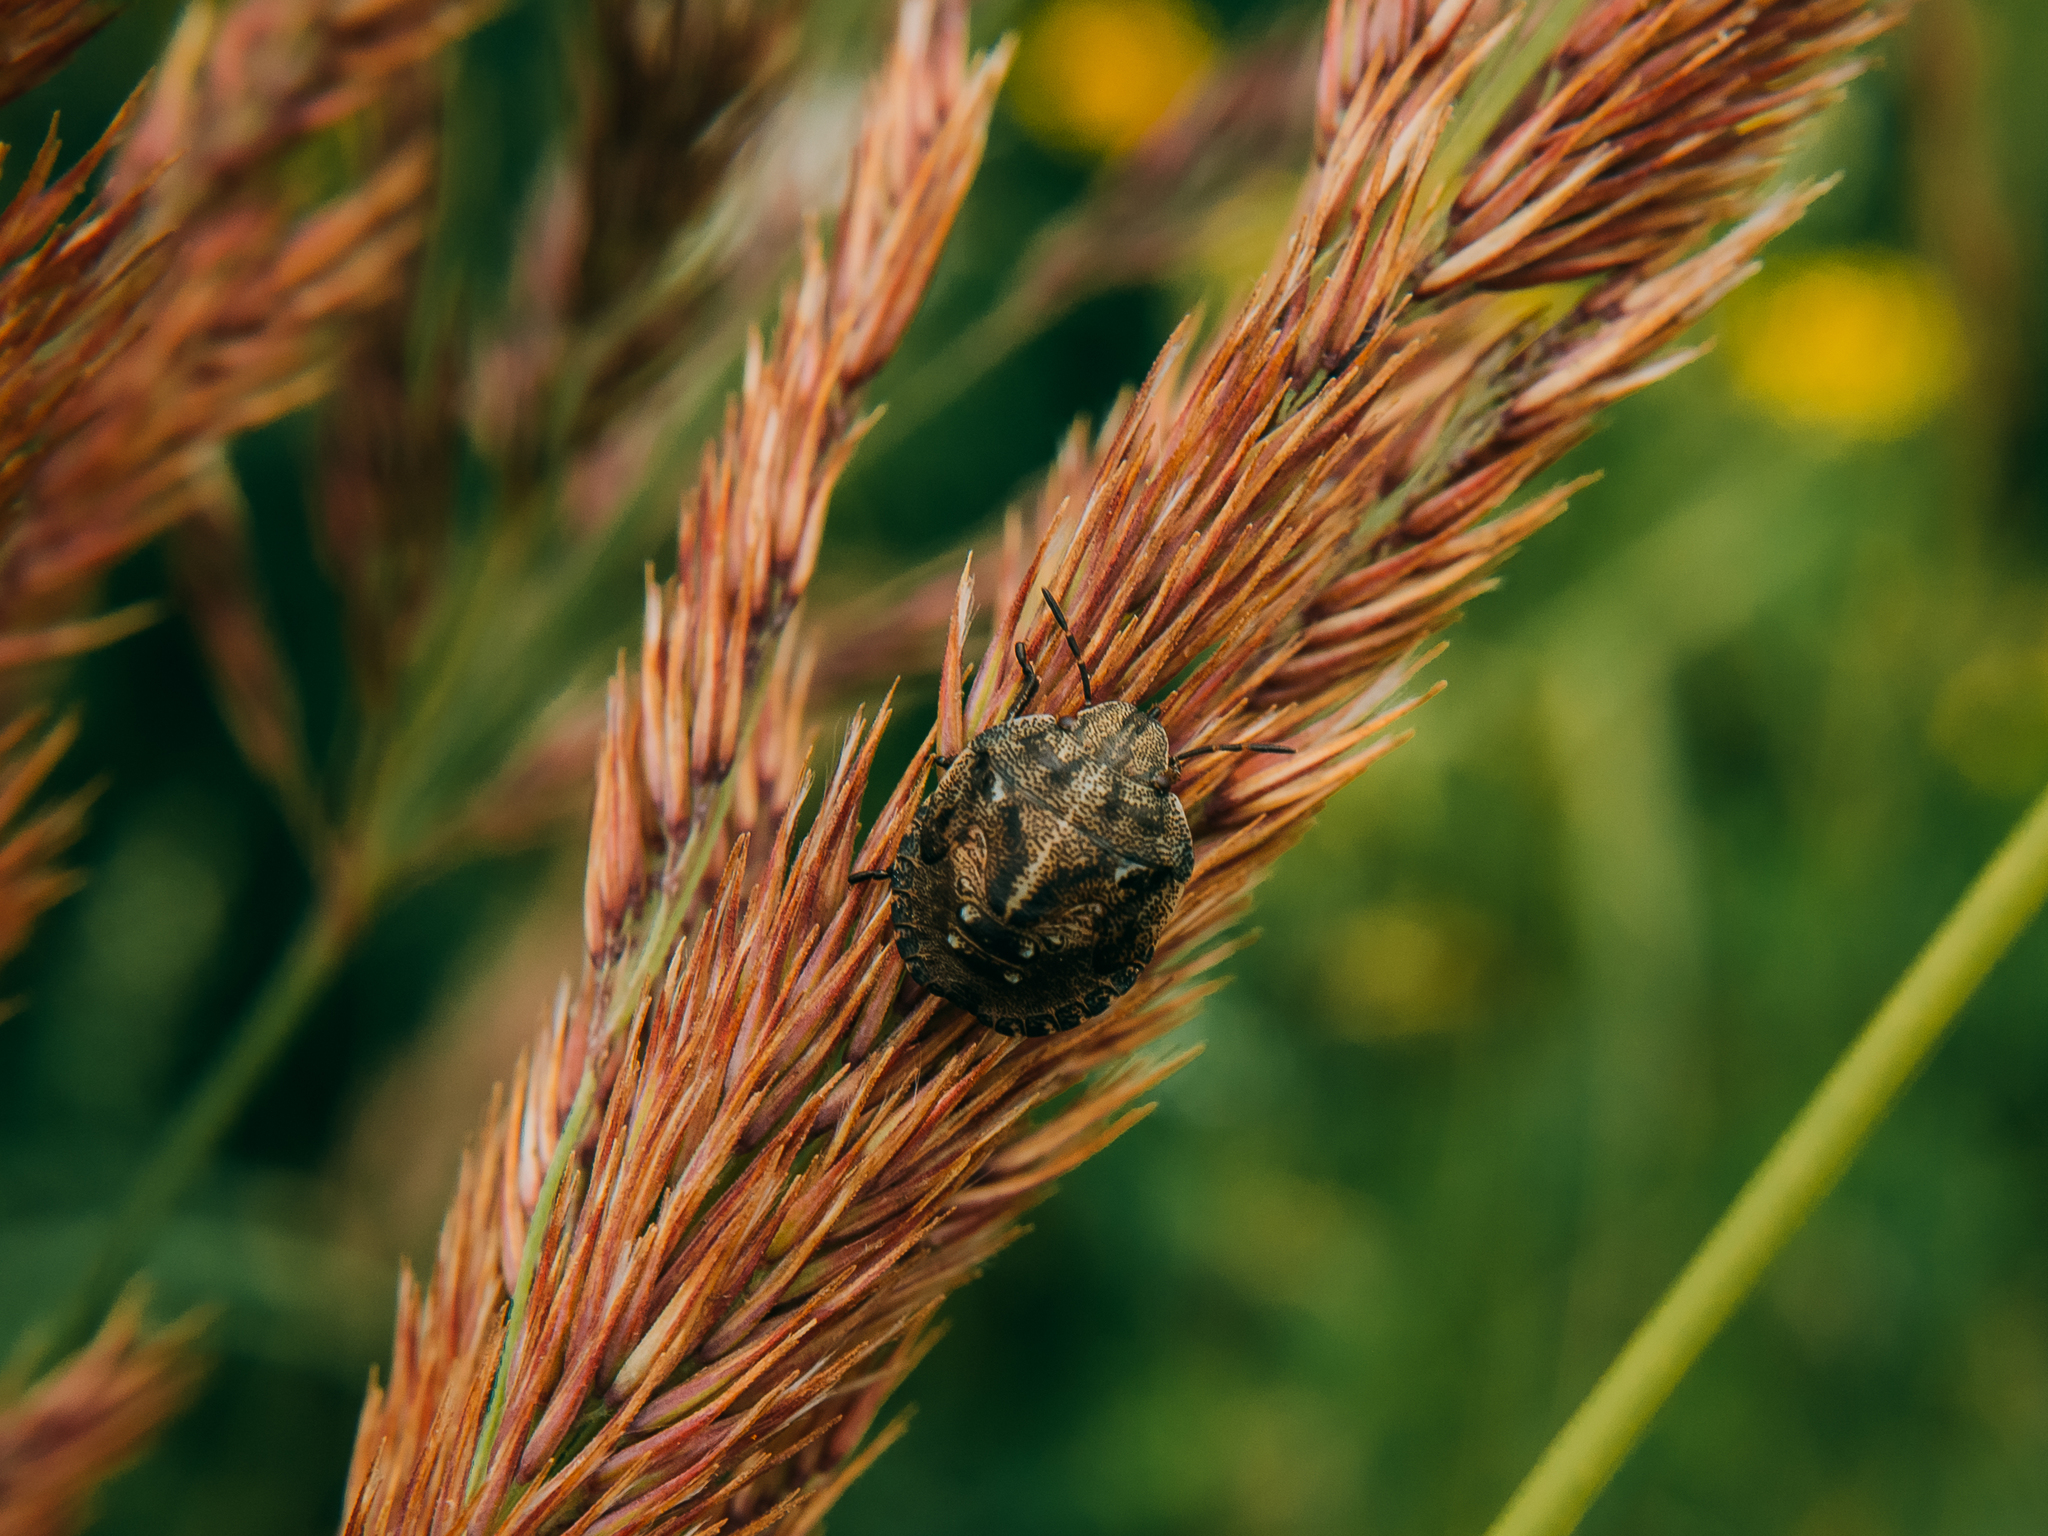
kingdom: Animalia
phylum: Arthropoda
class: Insecta
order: Hemiptera
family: Scutelleridae
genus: Eurygaster
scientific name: Eurygaster testudinaria
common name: Tortoise bug
